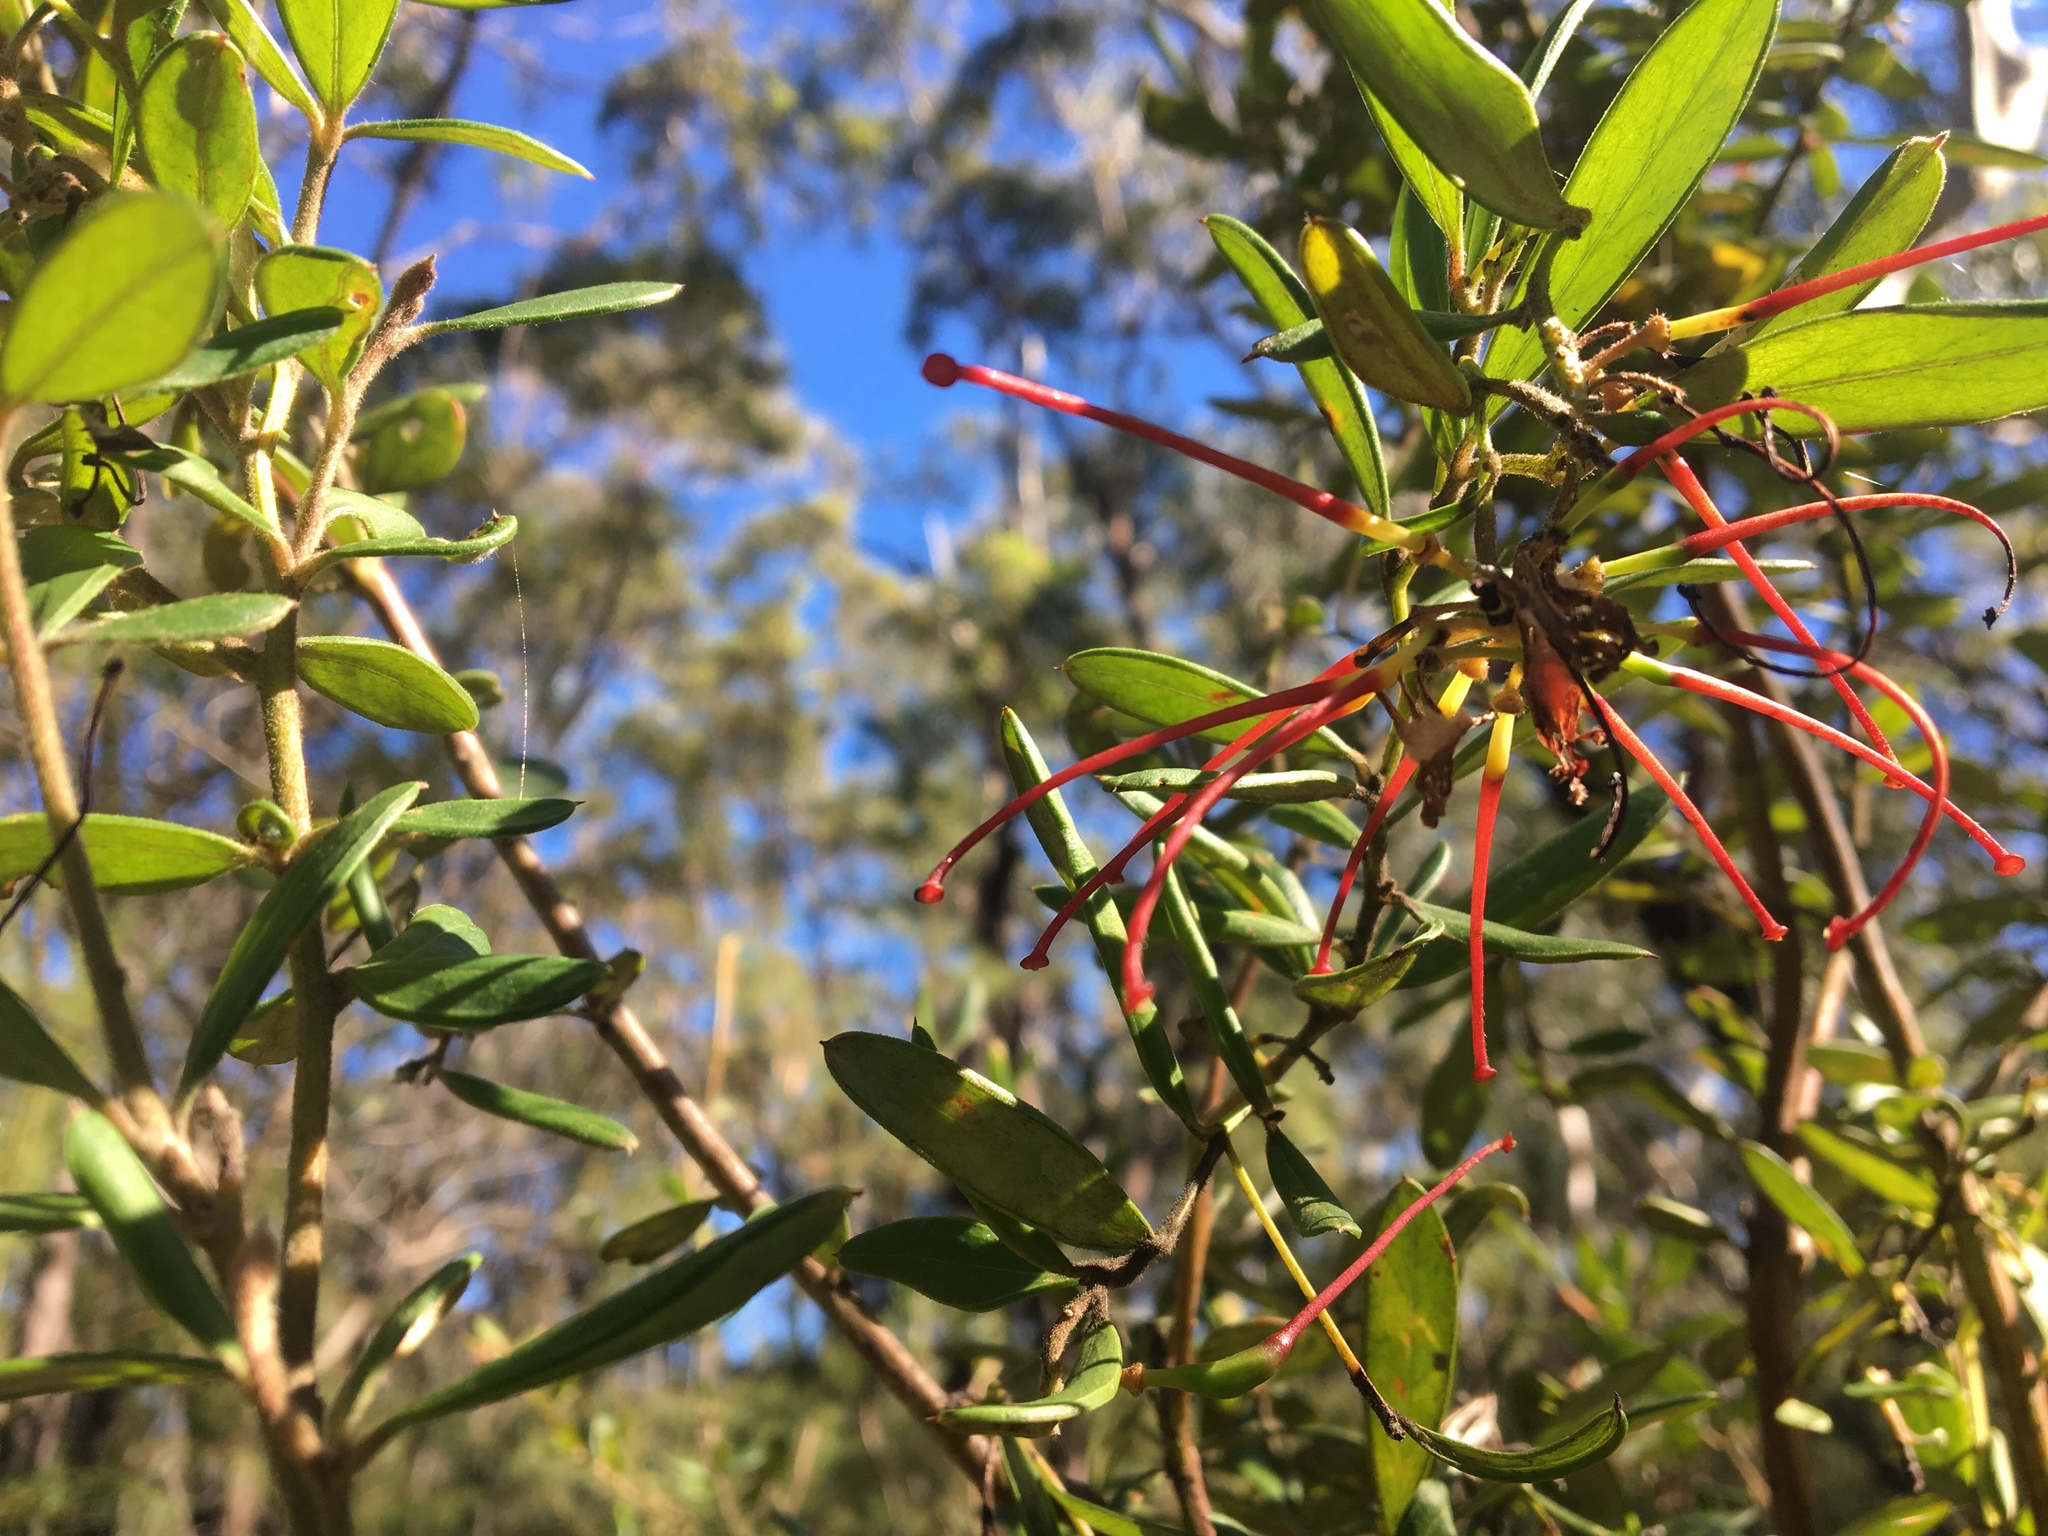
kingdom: Plantae
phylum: Tracheophyta
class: Magnoliopsida
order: Proteales
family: Proteaceae
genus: Grevillea
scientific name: Grevillea speciosa
